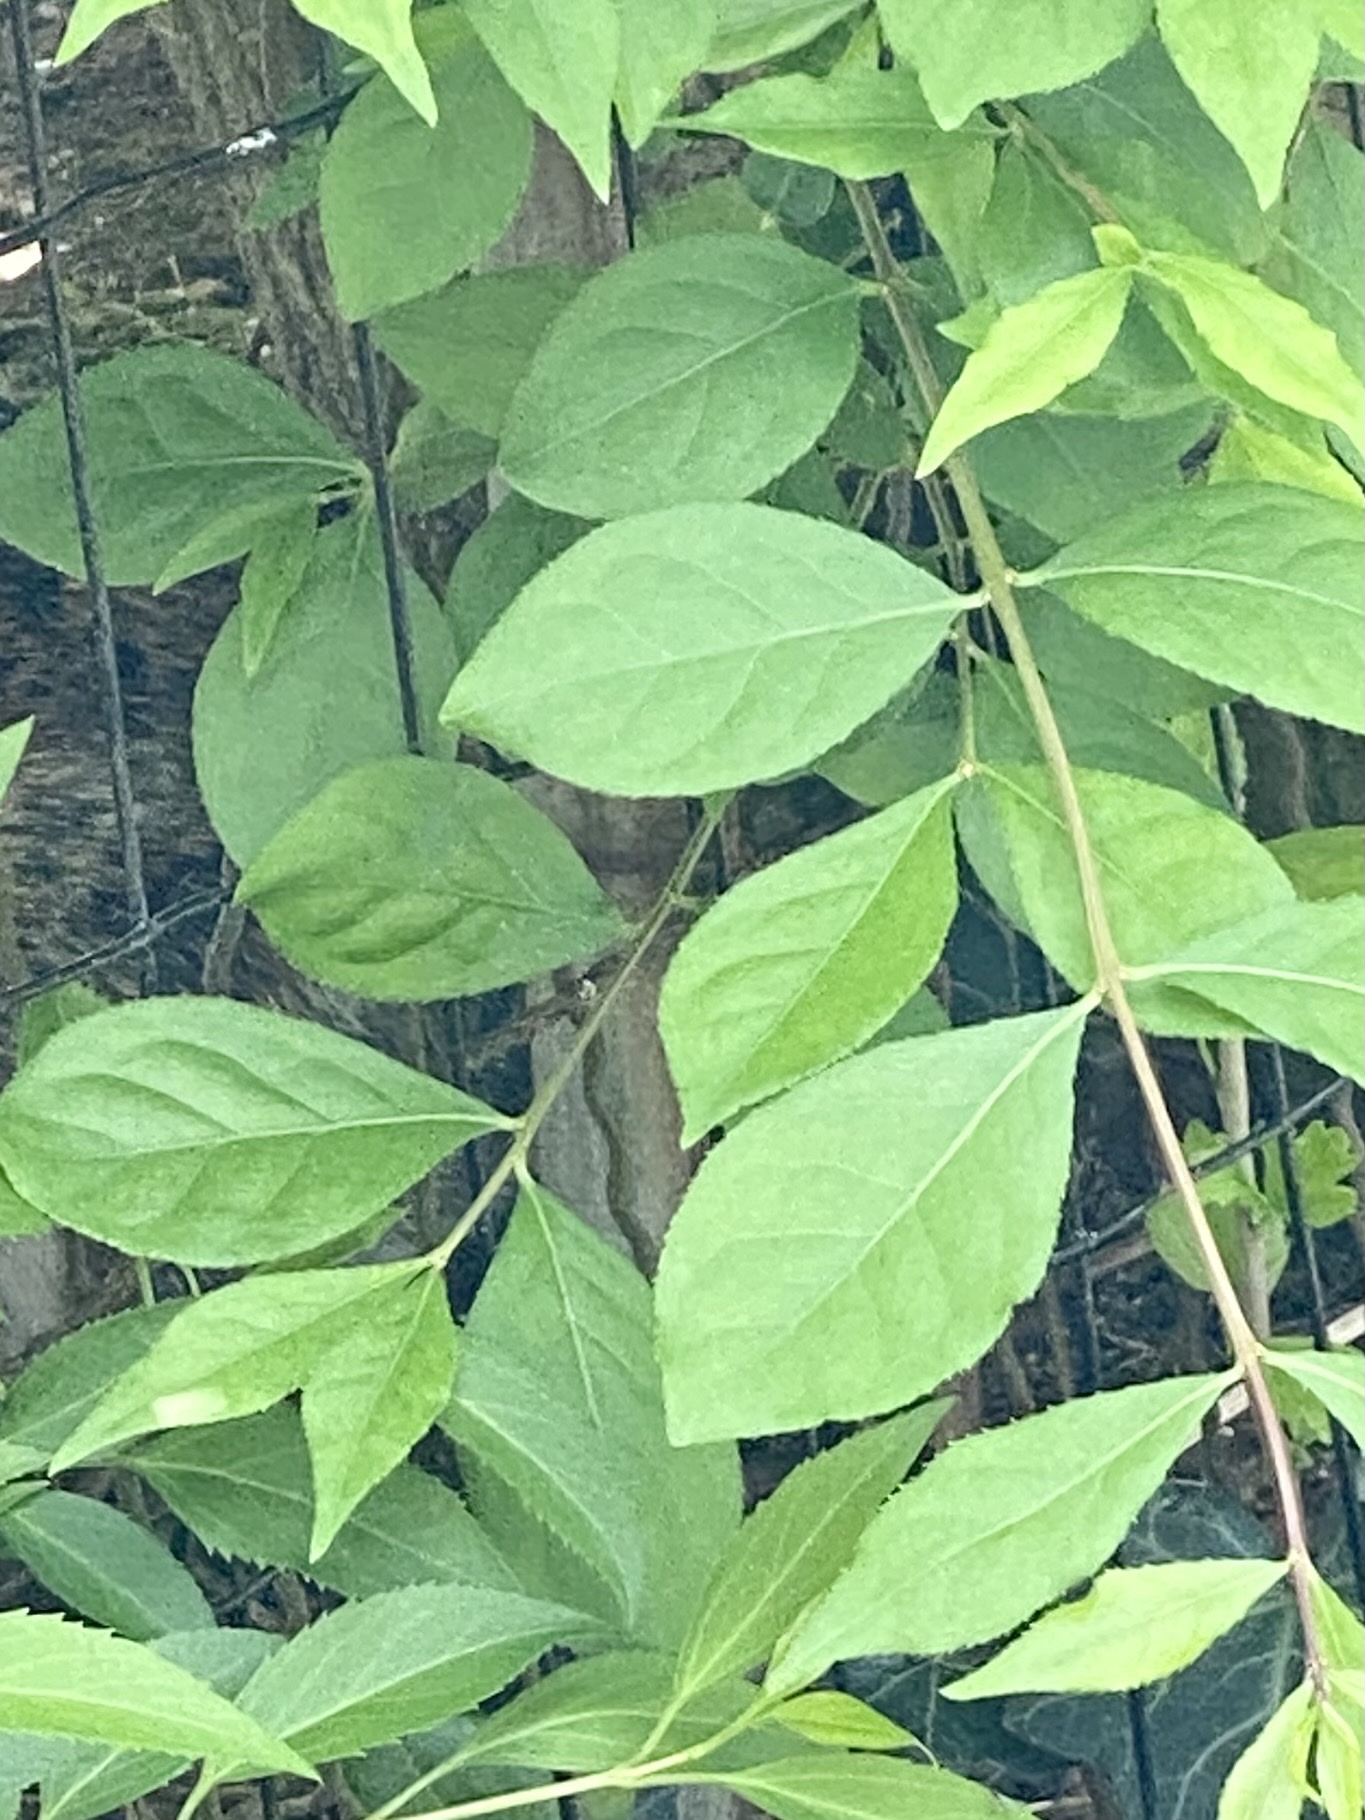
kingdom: Plantae
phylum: Tracheophyta
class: Magnoliopsida
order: Celastrales
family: Celastraceae
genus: Euonymus
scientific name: Euonymus alatus
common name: Winged euonymus
